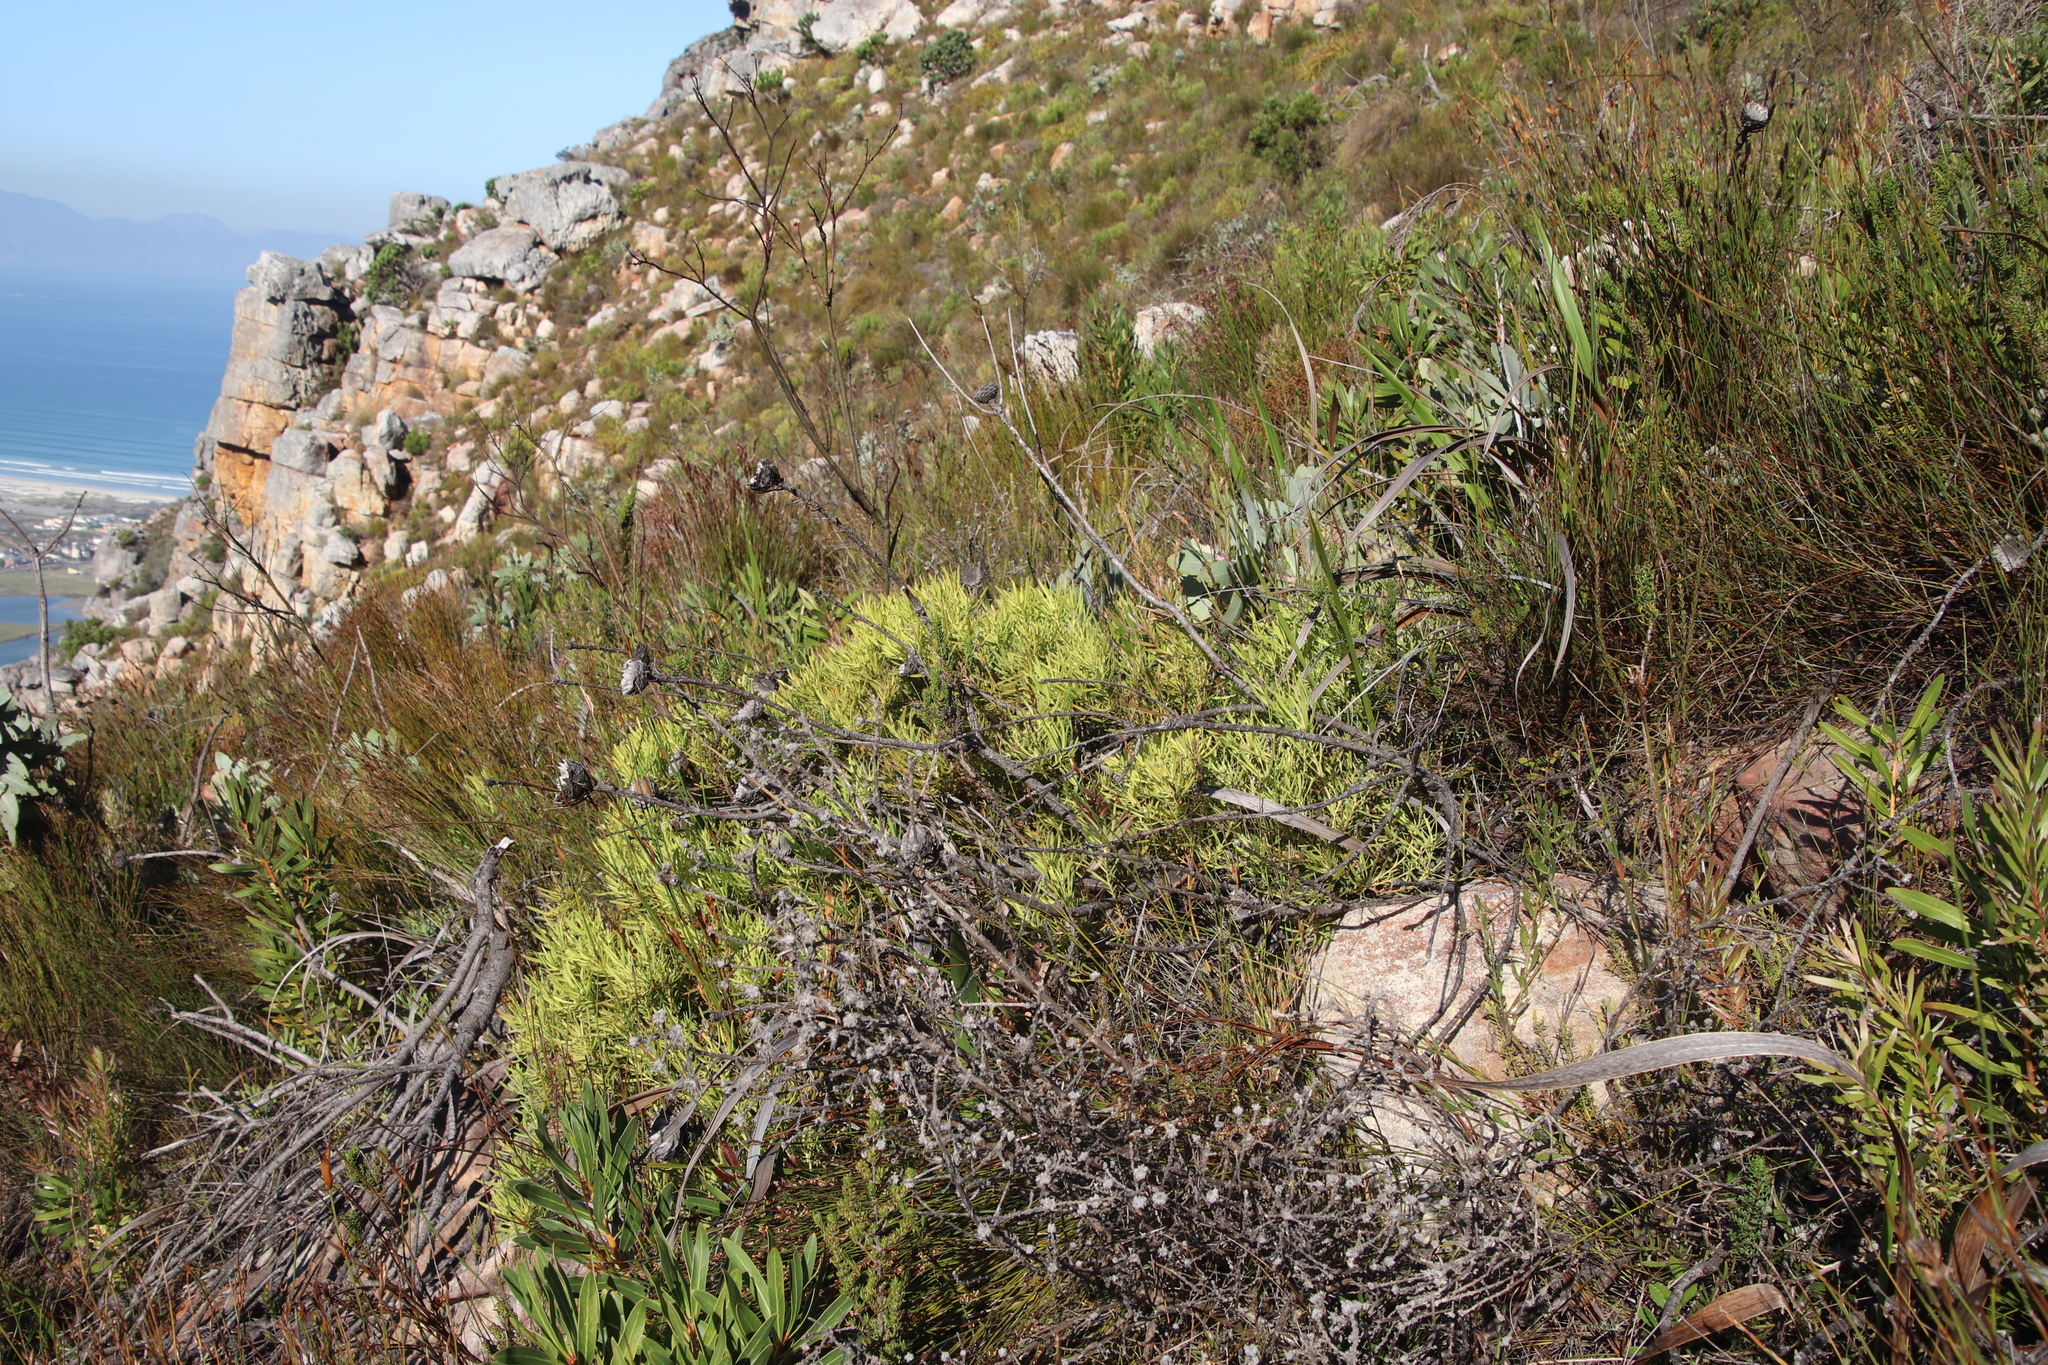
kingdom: Plantae
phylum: Tracheophyta
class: Magnoliopsida
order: Proteales
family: Proteaceae
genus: Leucadendron
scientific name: Leucadendron salignum
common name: Common sunshine conebush
